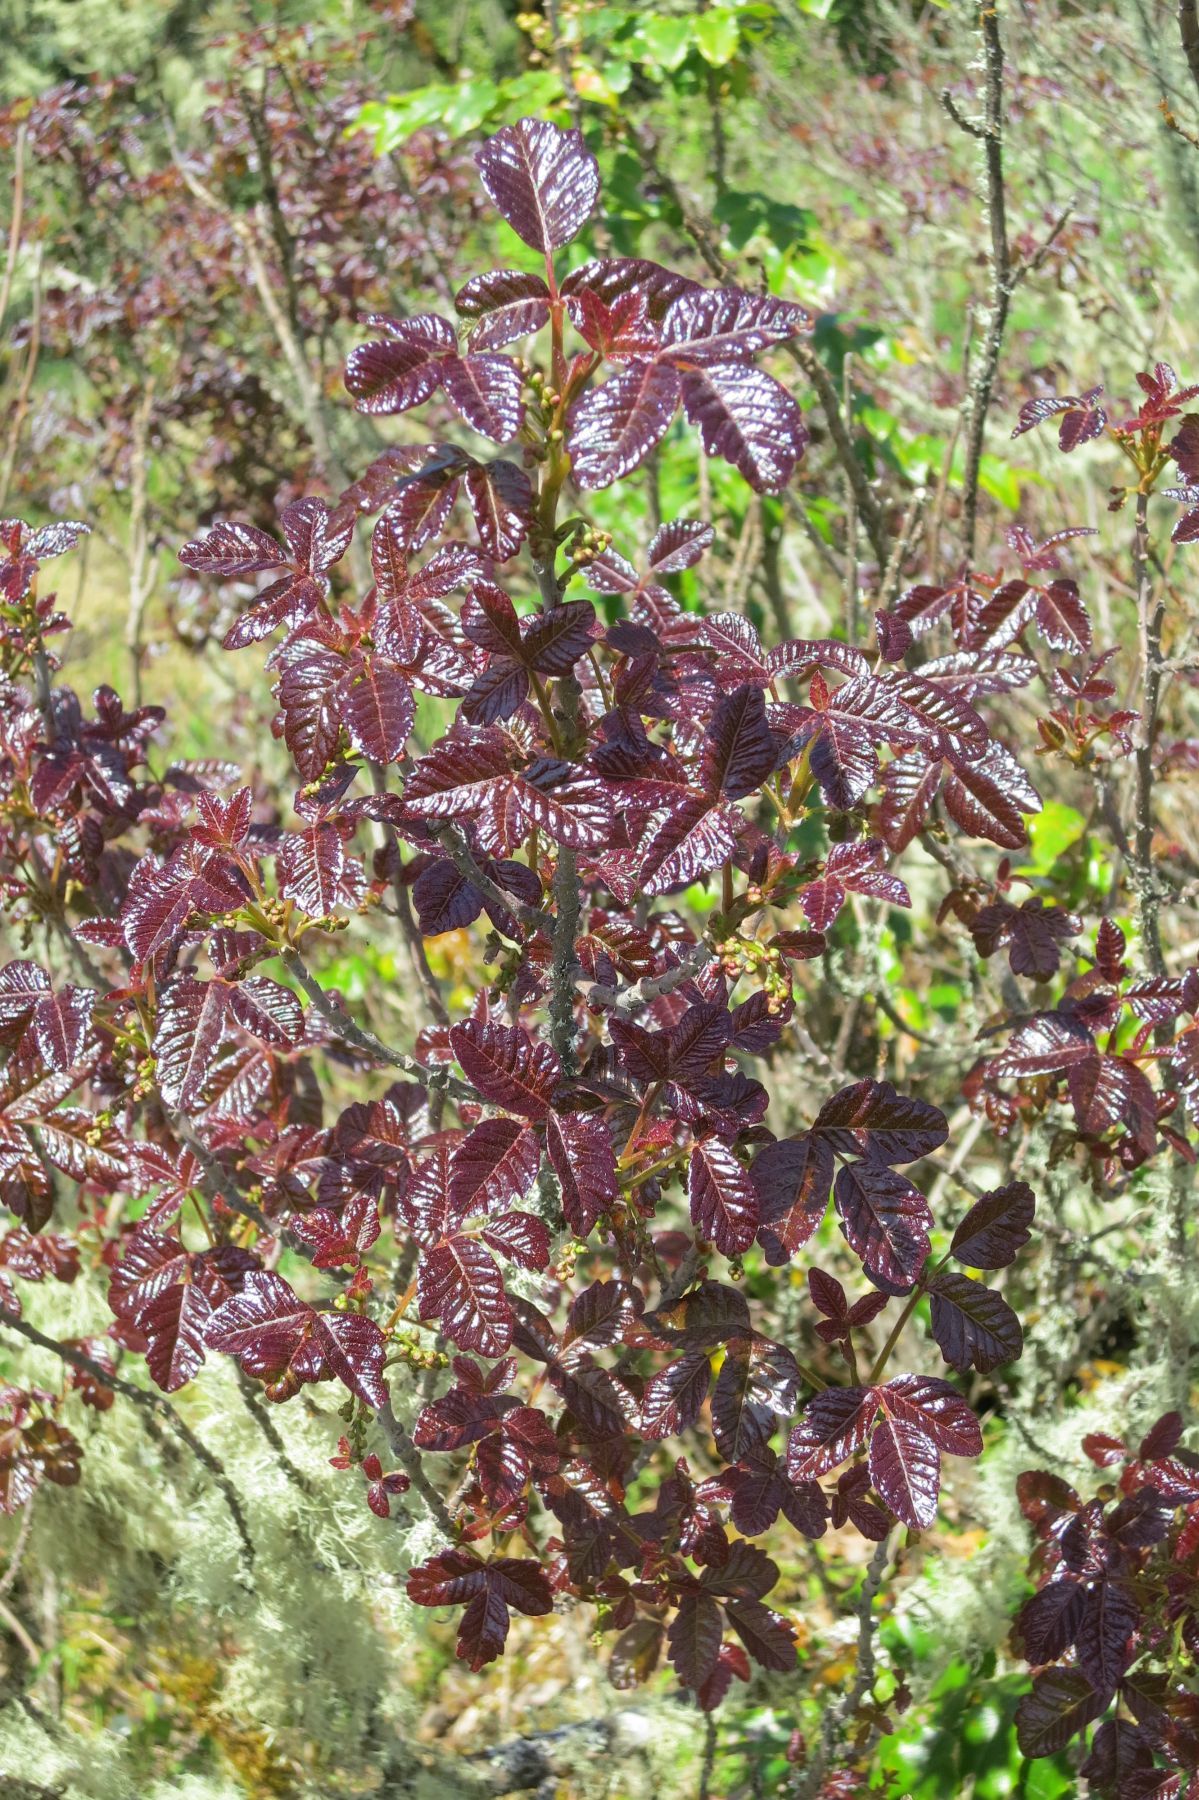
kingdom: Plantae
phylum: Tracheophyta
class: Magnoliopsida
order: Sapindales
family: Anacardiaceae
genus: Toxicodendron
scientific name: Toxicodendron diversilobum
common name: Pacific poison-oak
